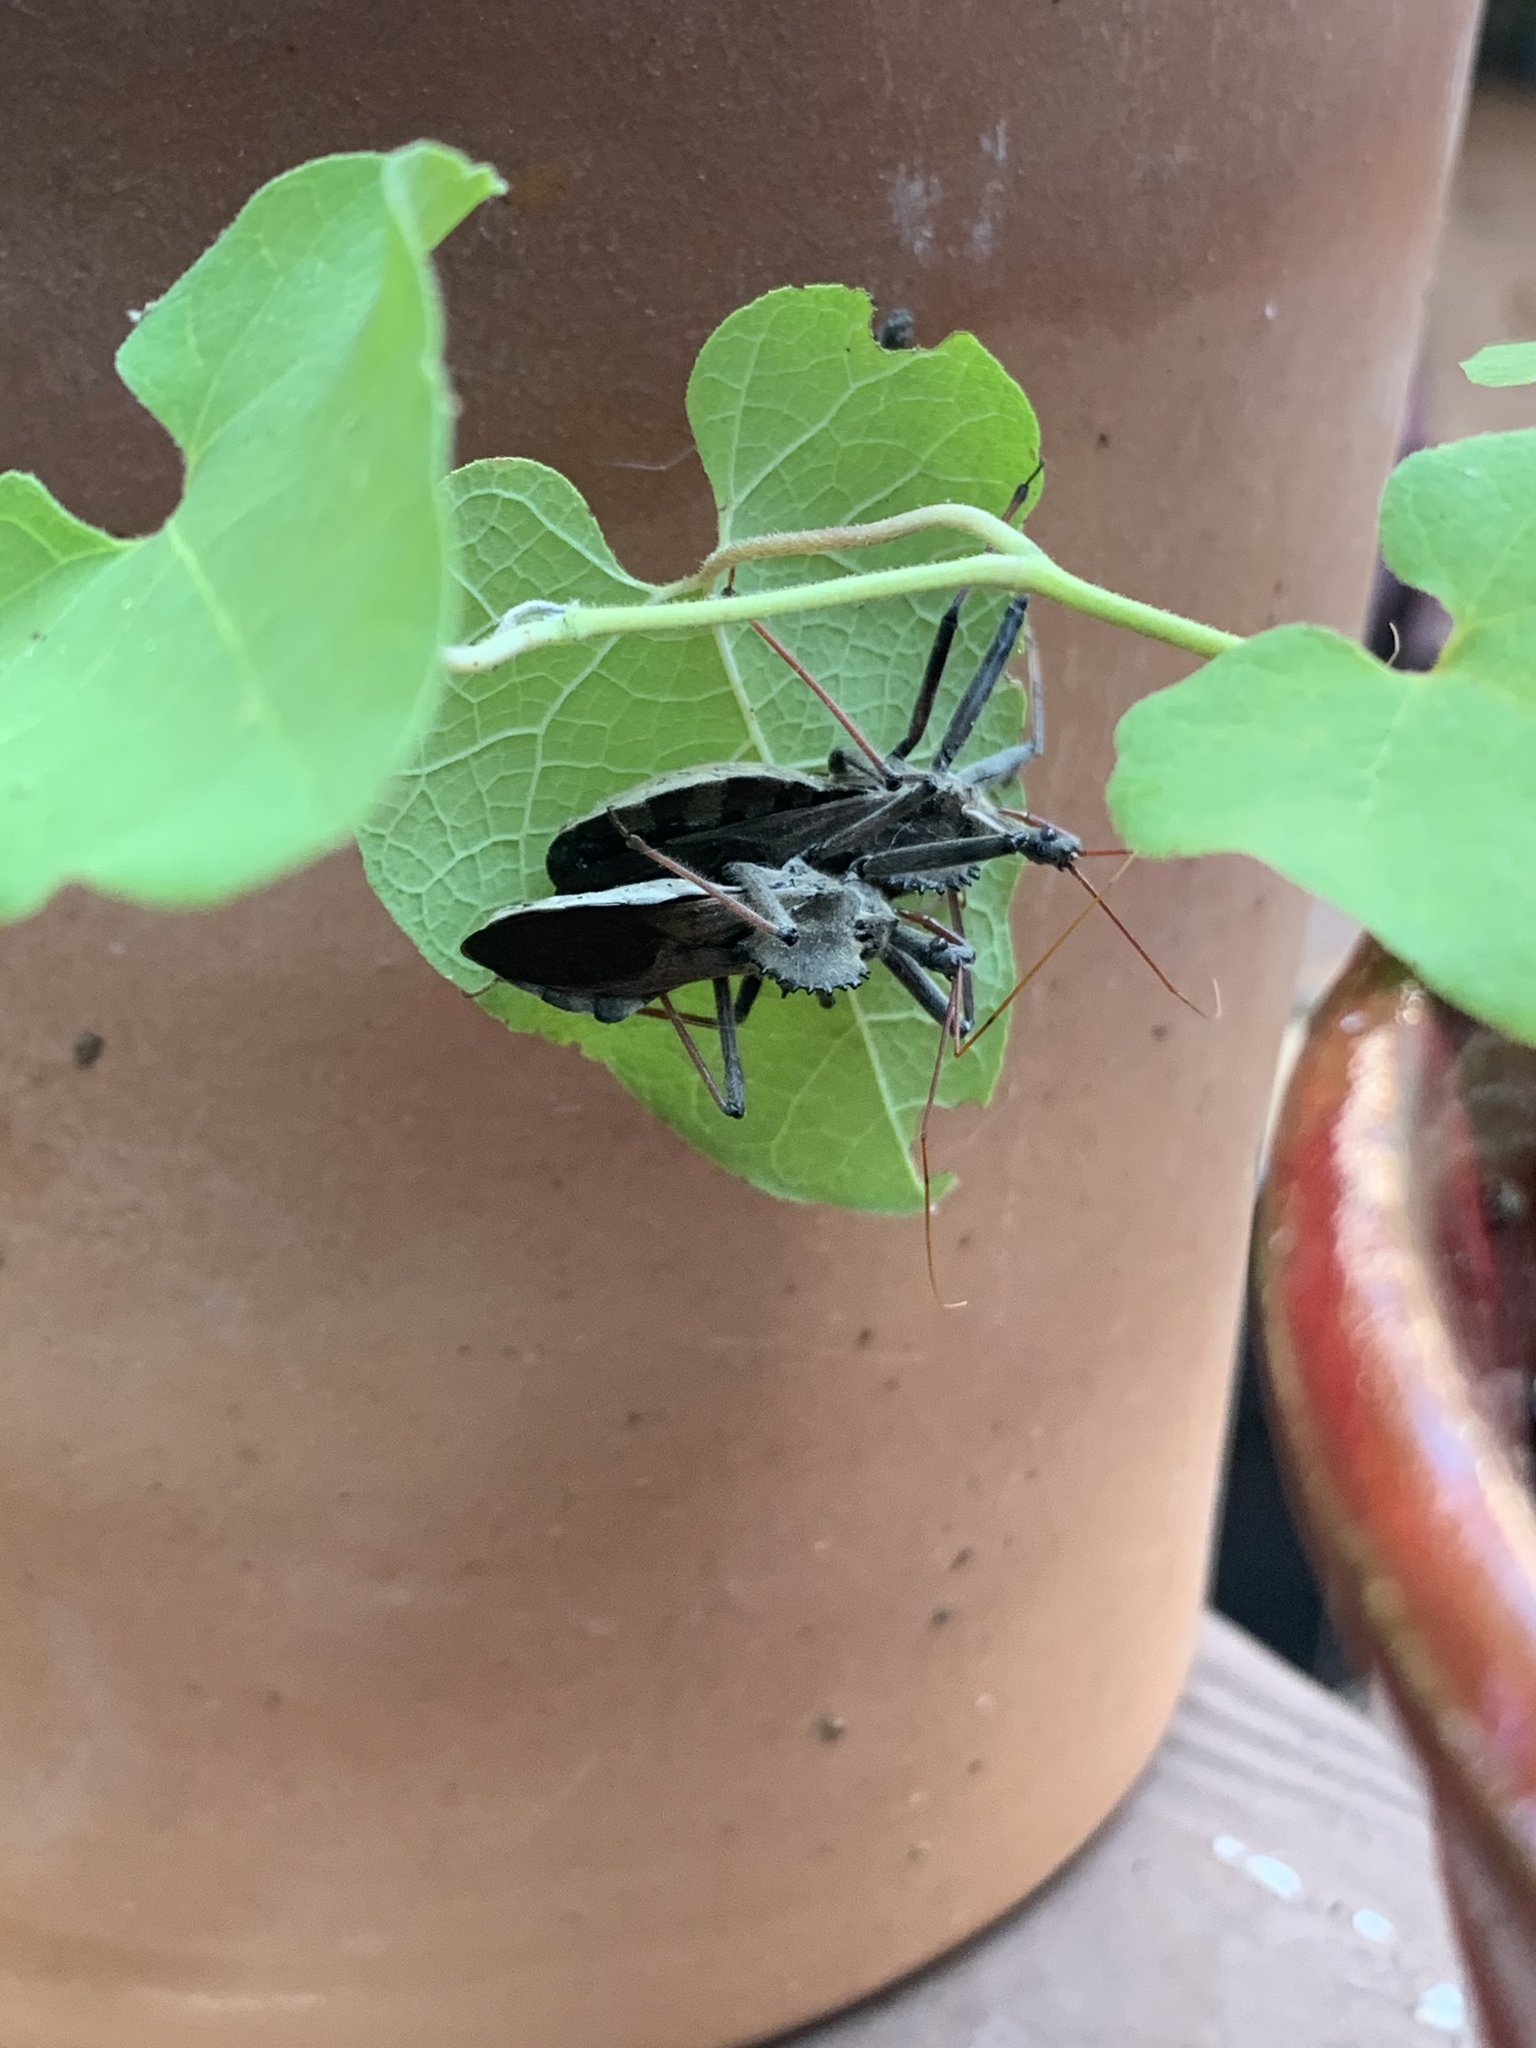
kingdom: Animalia
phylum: Arthropoda
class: Insecta
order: Hemiptera
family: Reduviidae
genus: Arilus
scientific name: Arilus cristatus
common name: North american wheel bug
